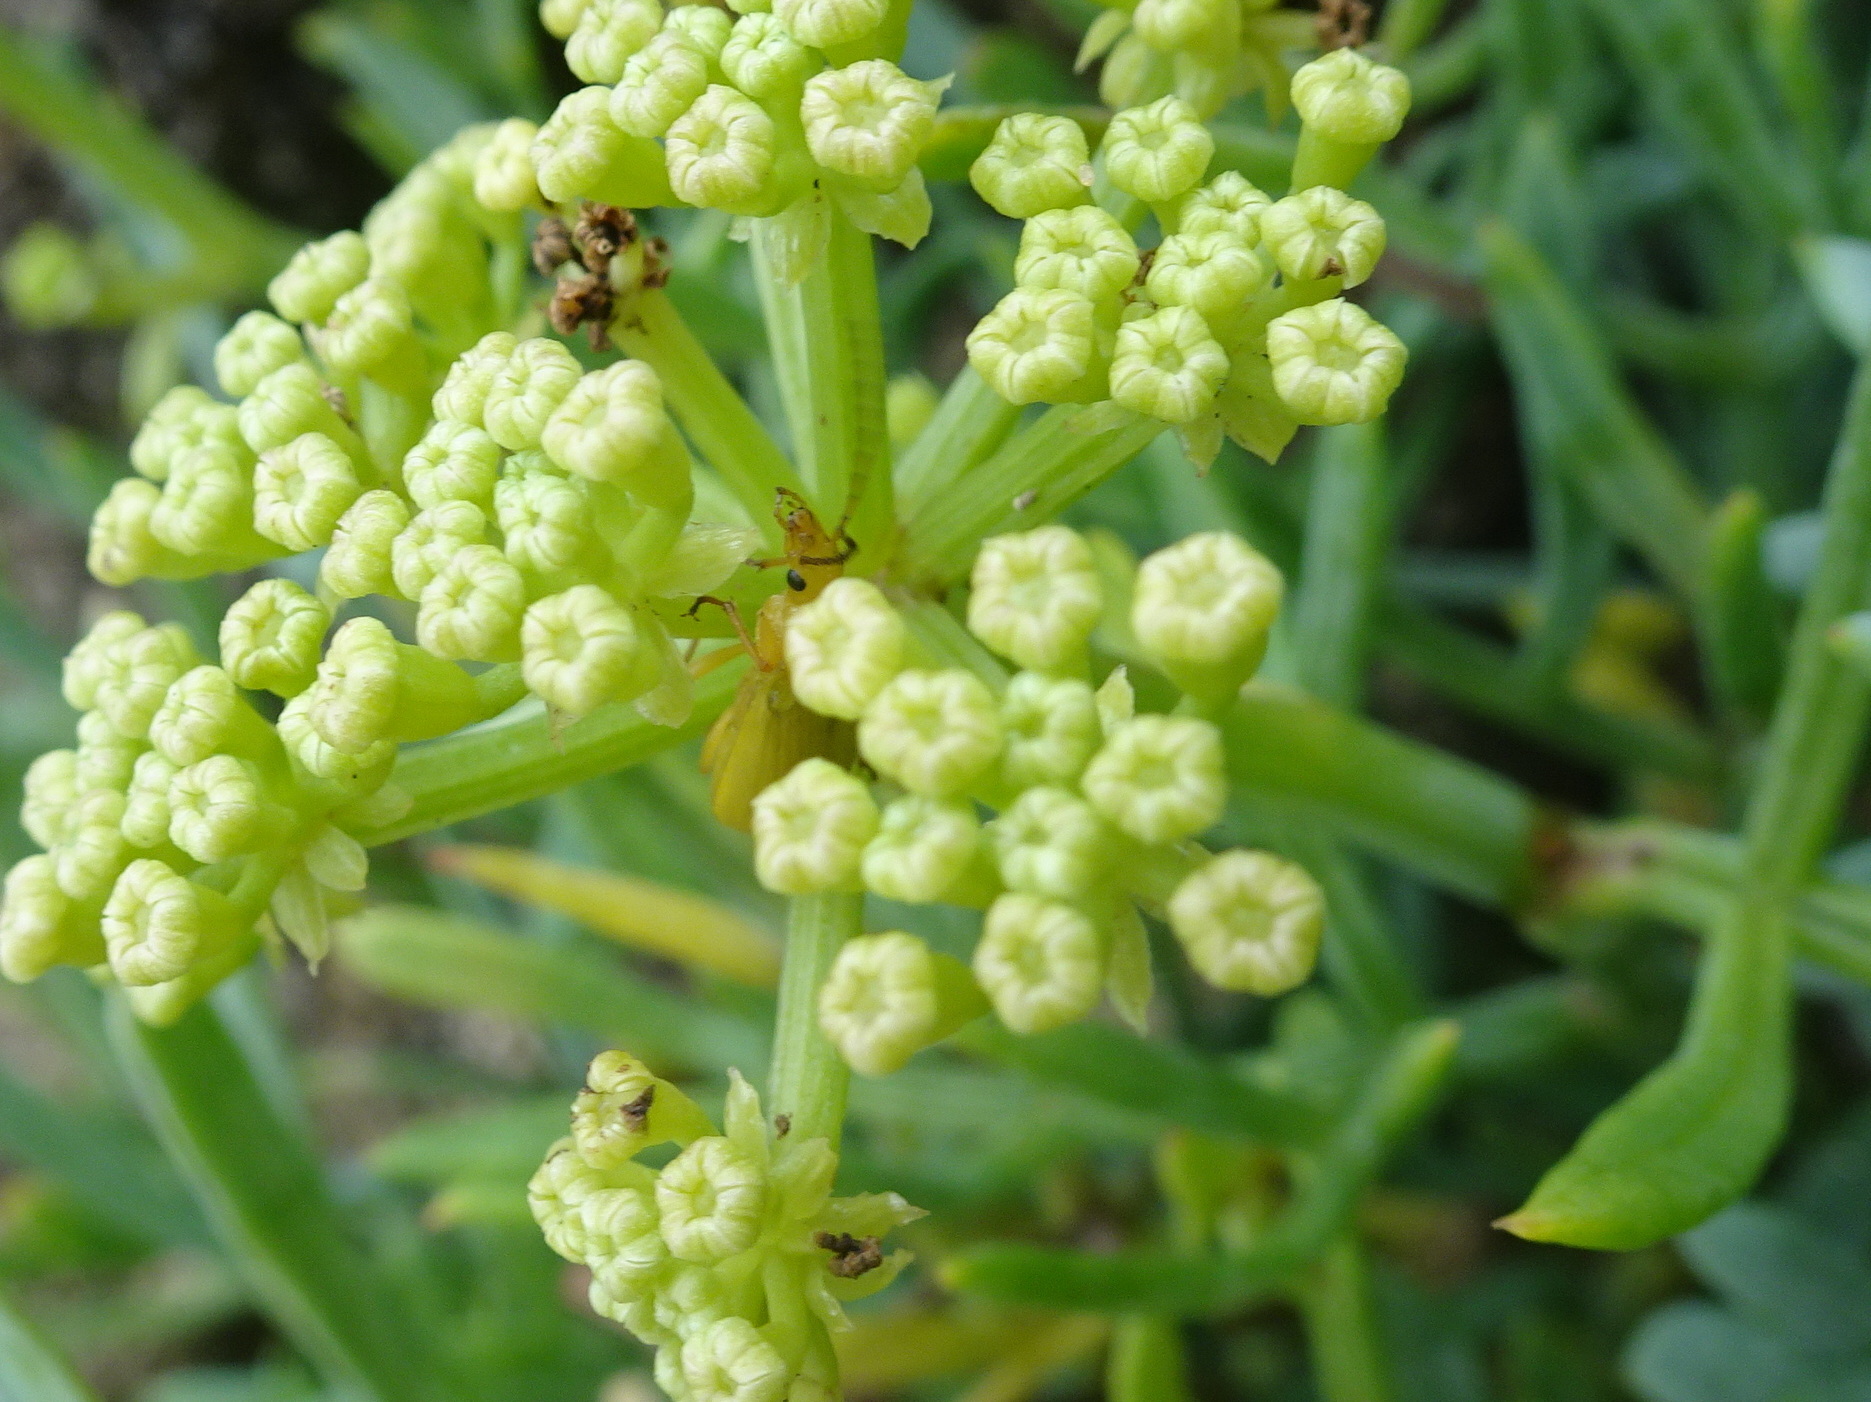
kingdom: Animalia
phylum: Arthropoda
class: Insecta
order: Coleoptera
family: Tenebrionidae
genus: Cteniopus
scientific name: Cteniopus sulphureus
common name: Sulphur beetle
